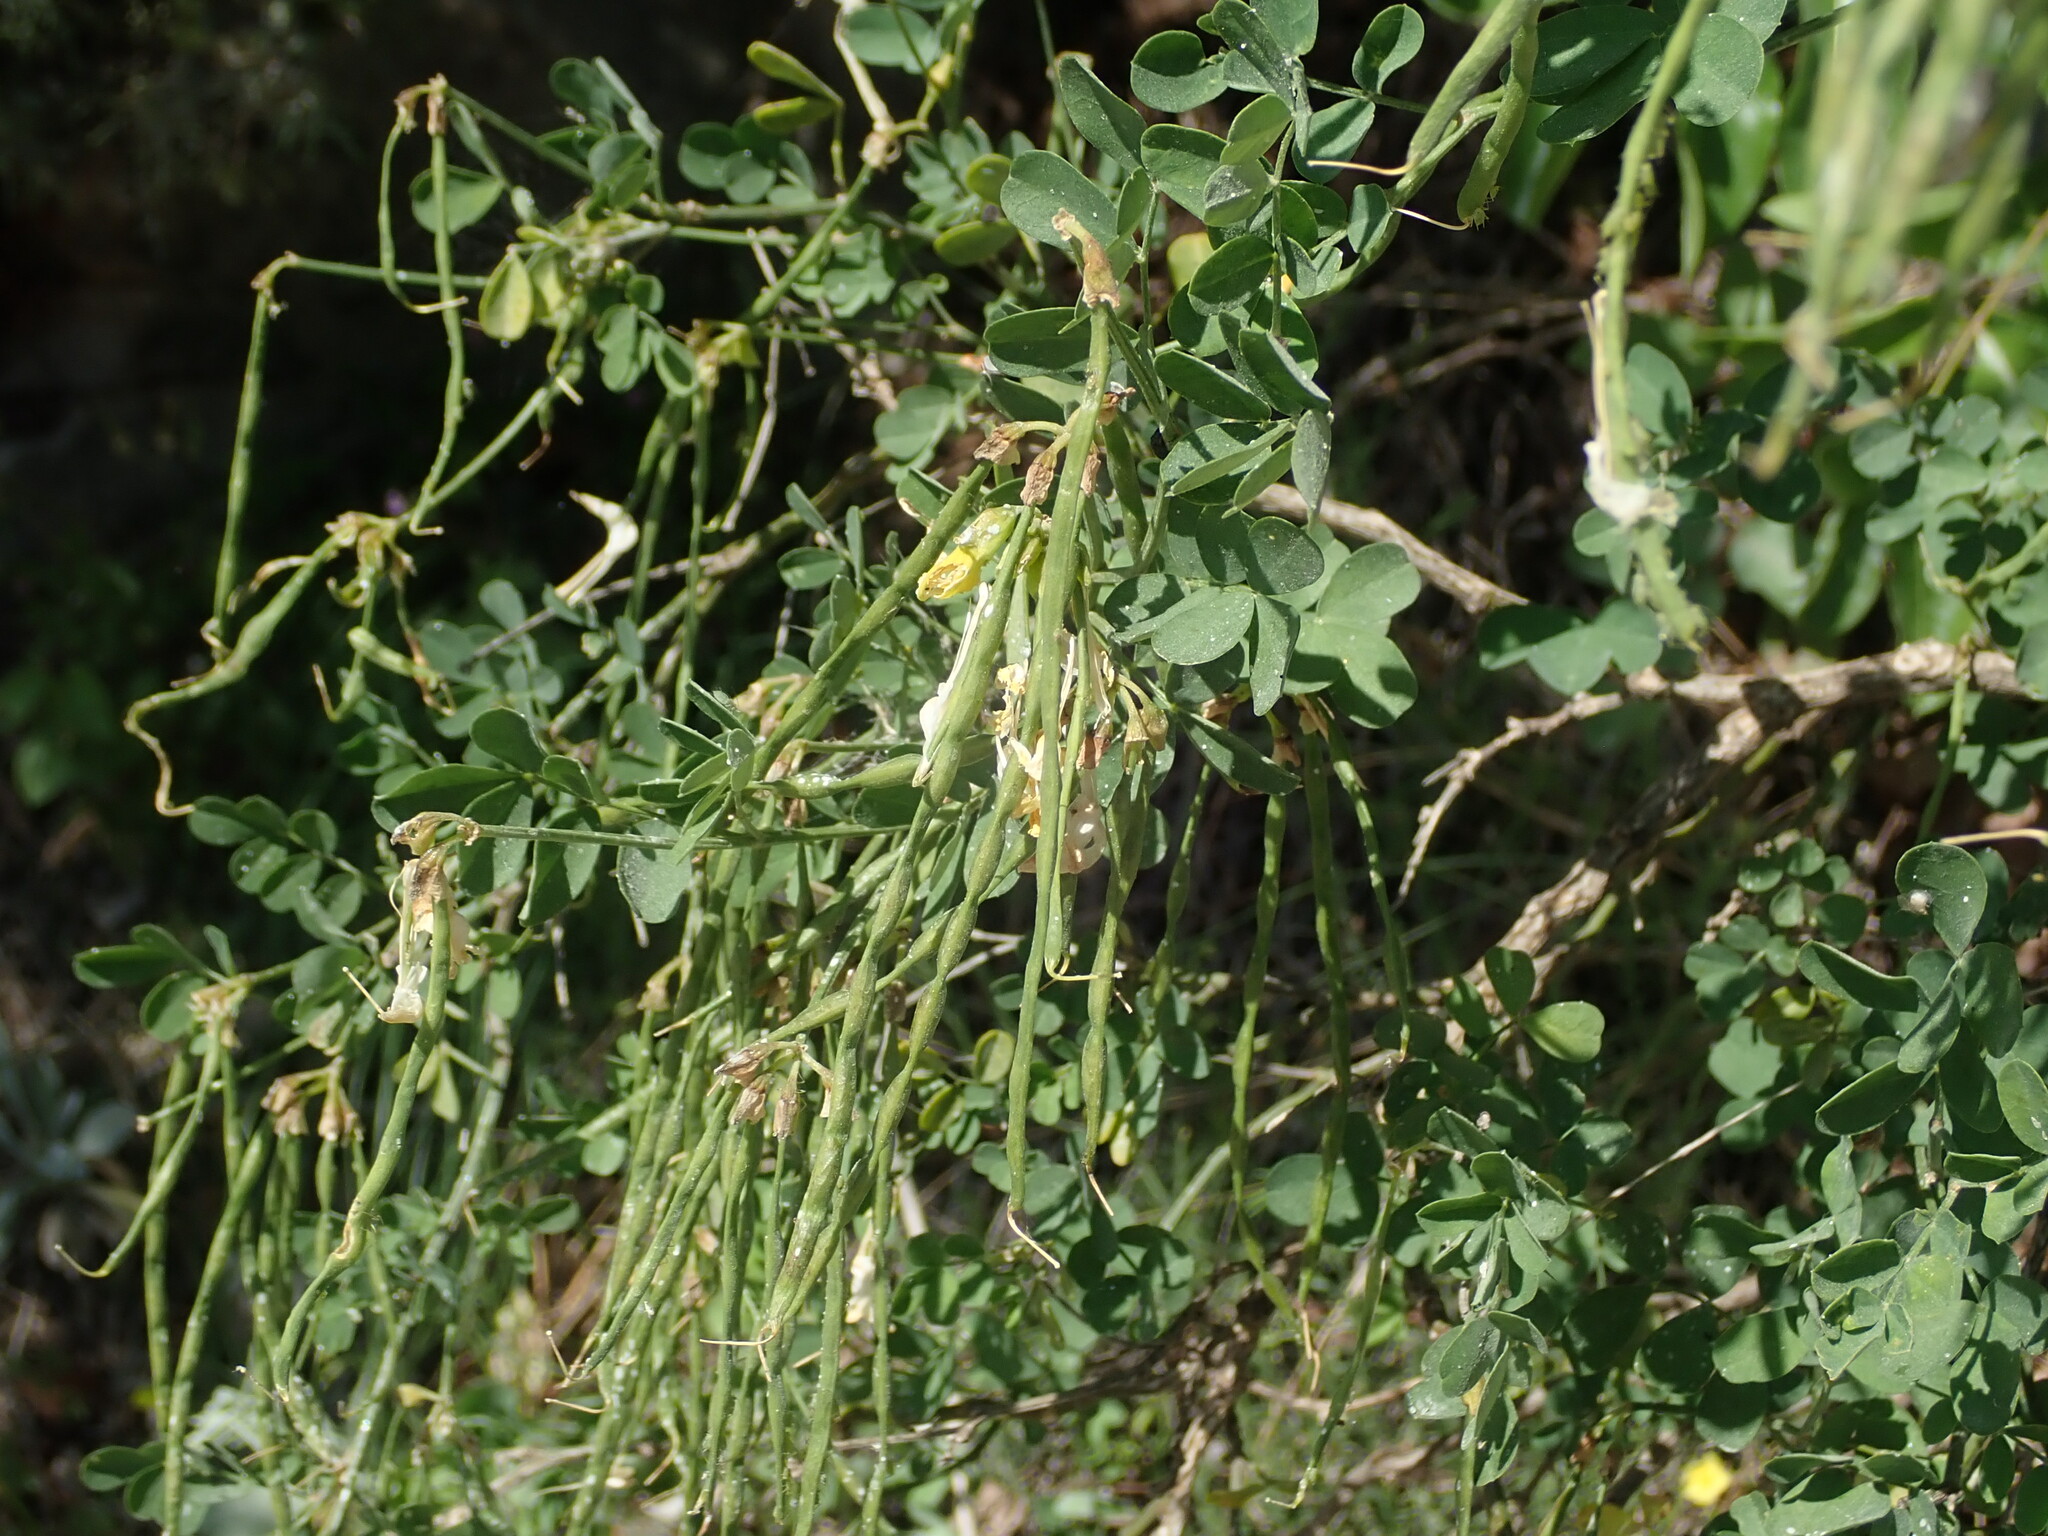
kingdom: Plantae
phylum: Tracheophyta
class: Magnoliopsida
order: Fabales
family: Fabaceae
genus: Hippocrepis
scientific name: Hippocrepis emerus
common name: Scorpion senna
